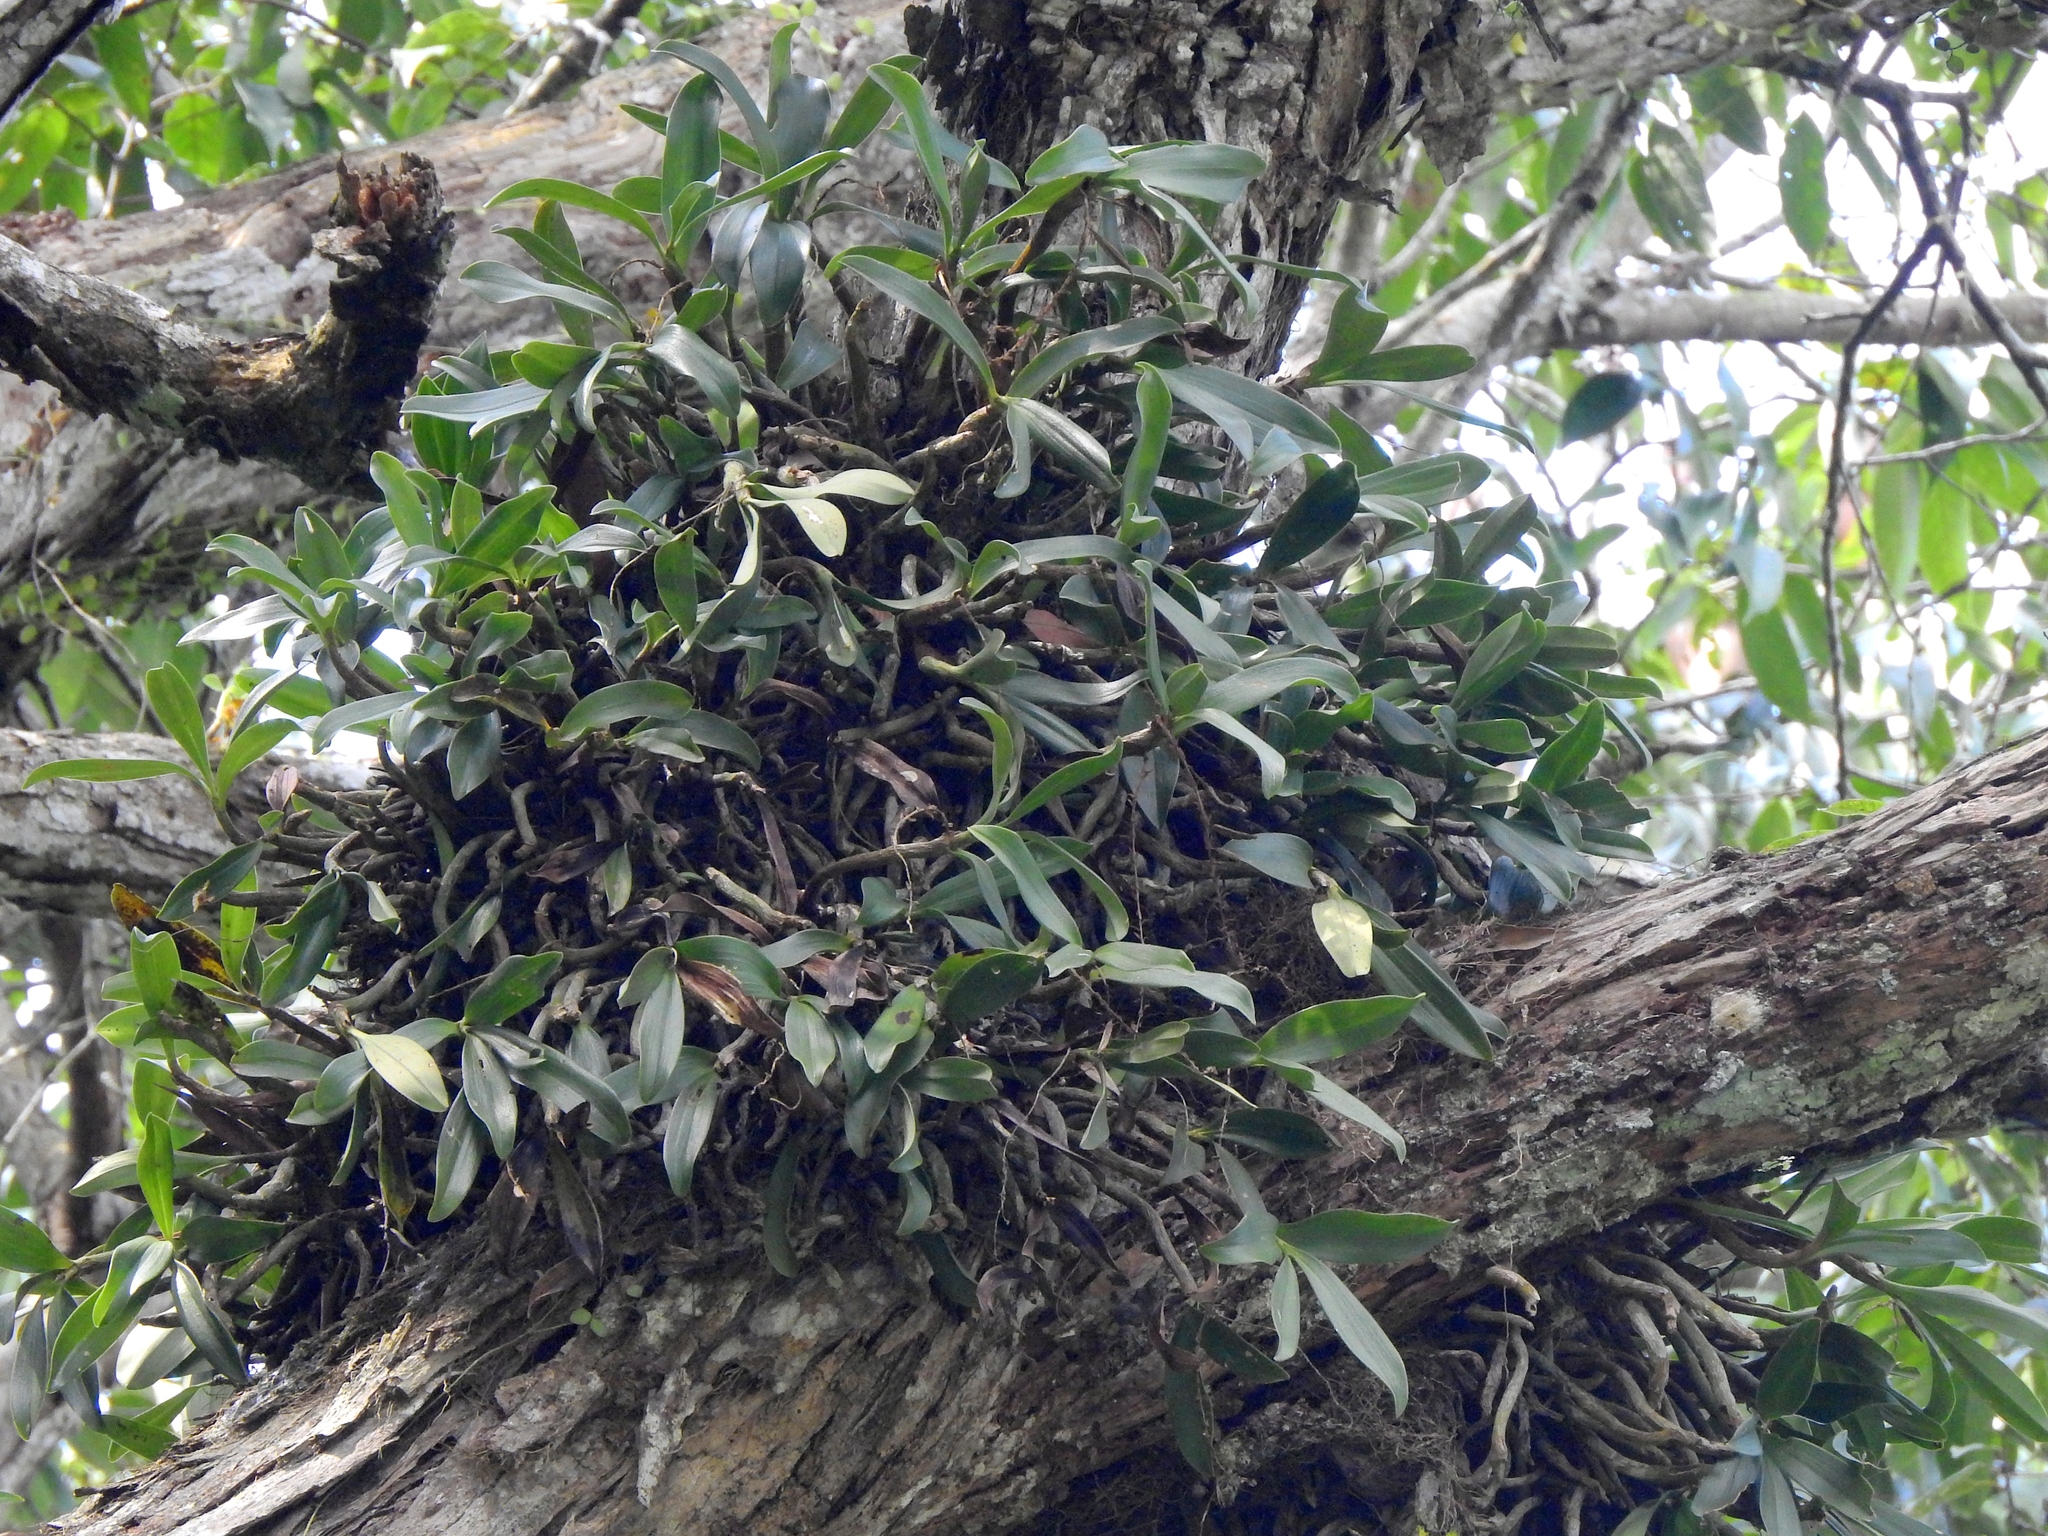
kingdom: Plantae
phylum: Tracheophyta
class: Liliopsida
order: Asparagales
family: Orchidaceae
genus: Pinalia
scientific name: Pinalia ovata
